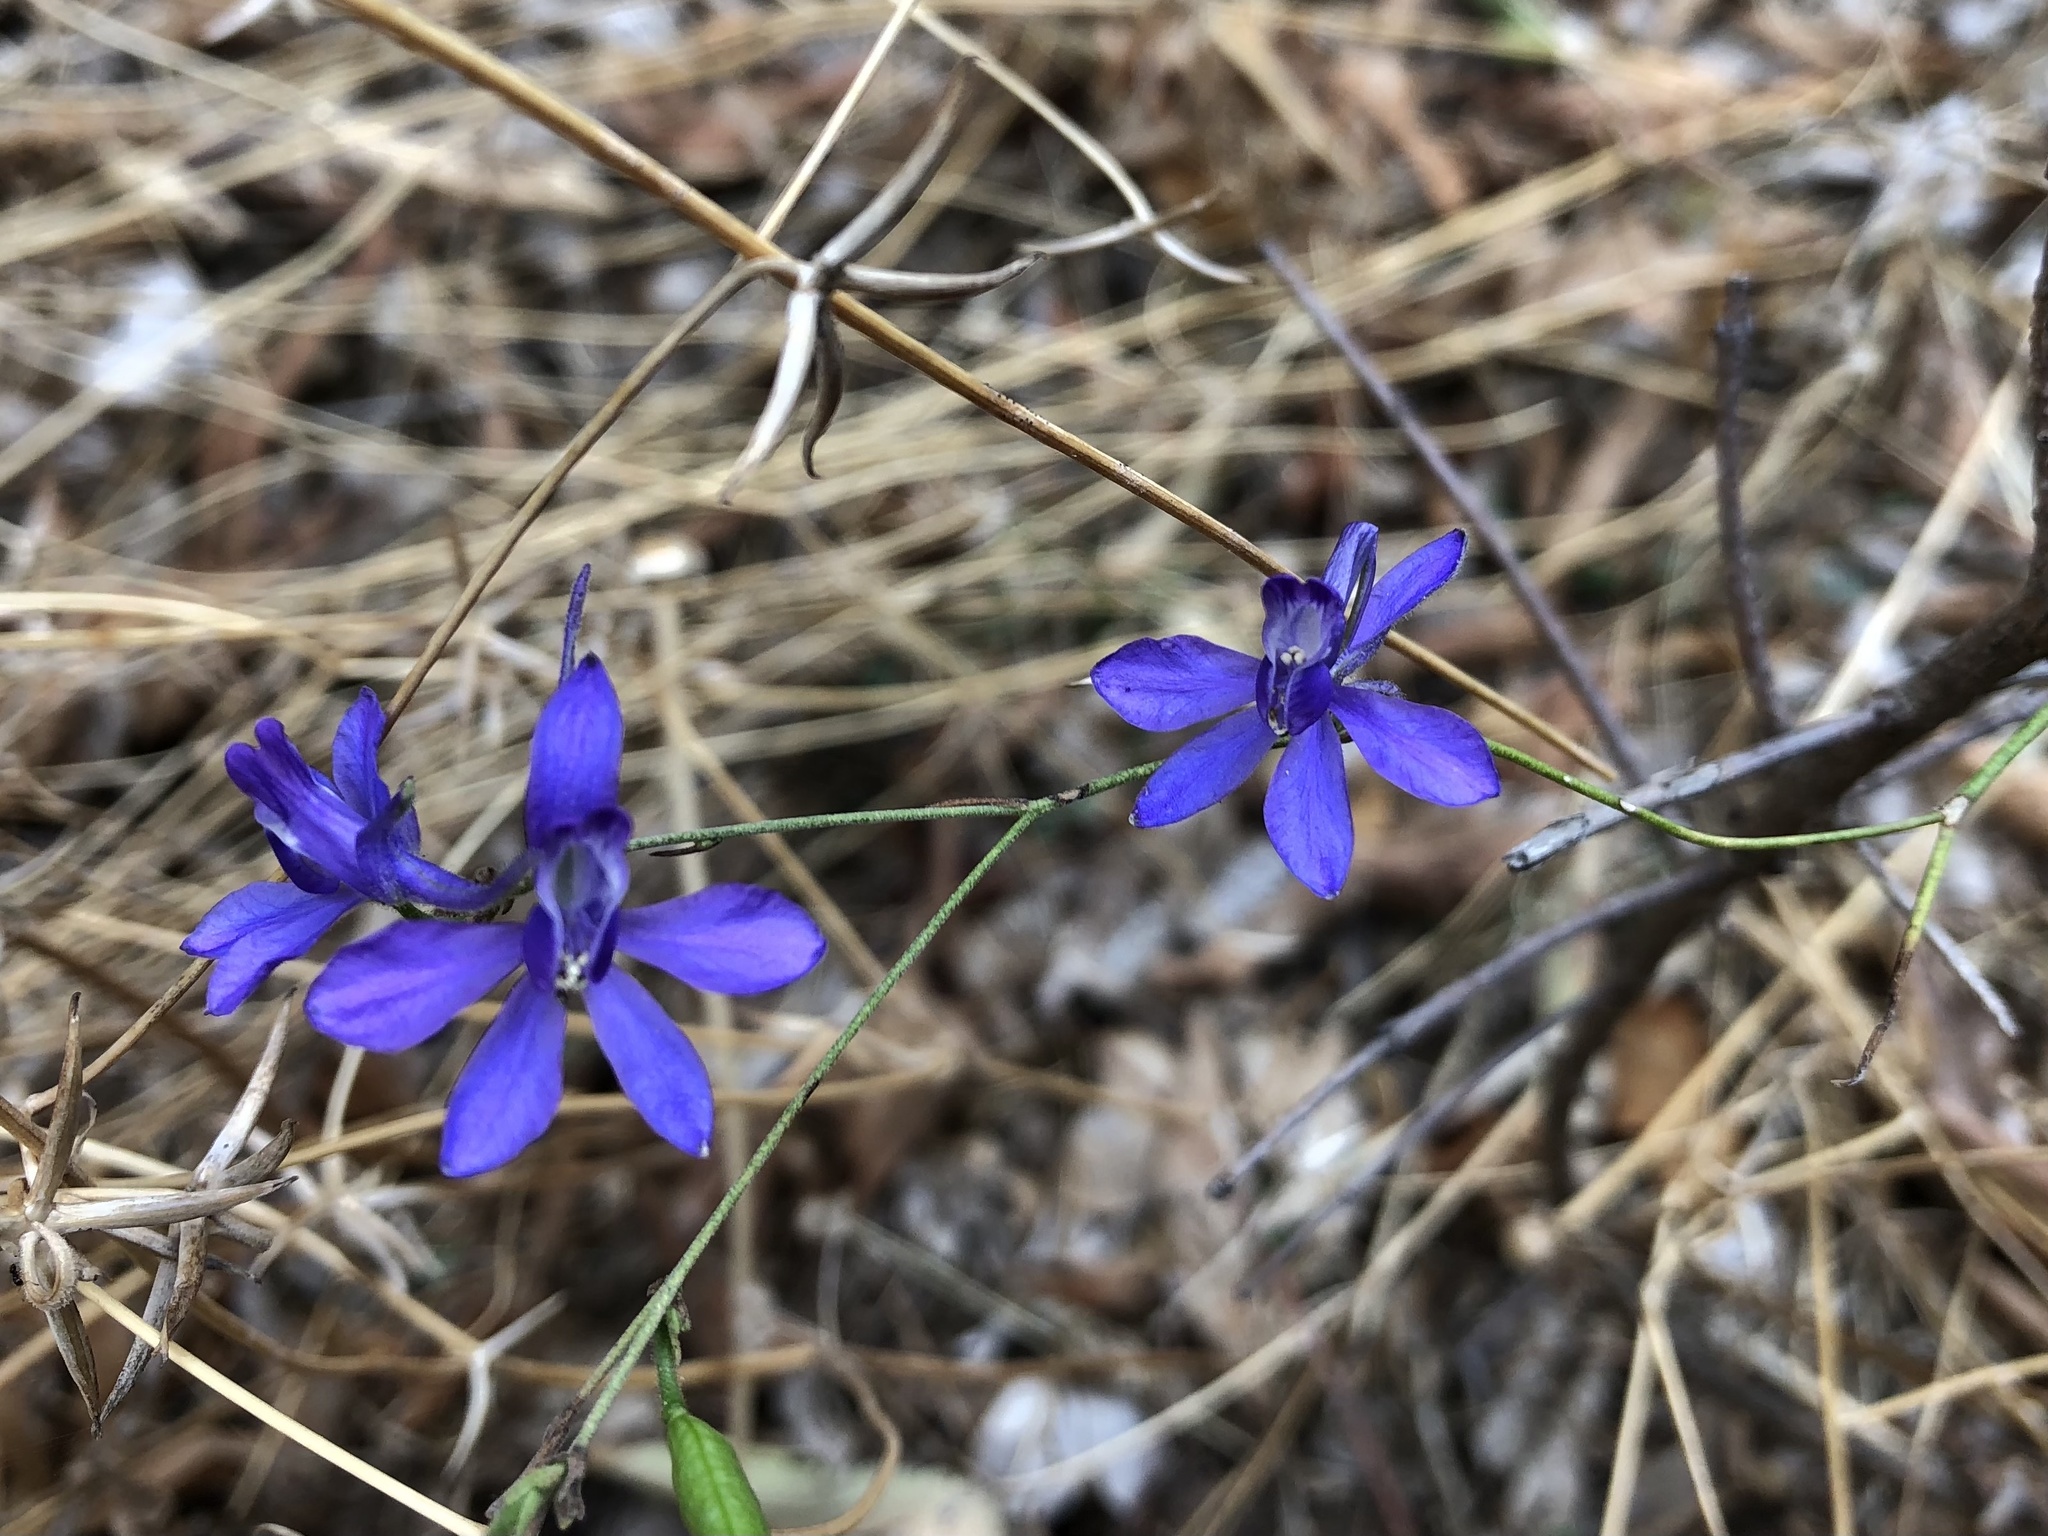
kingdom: Plantae
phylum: Tracheophyta
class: Magnoliopsida
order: Ranunculales
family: Ranunculaceae
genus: Delphinium
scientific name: Delphinium consolida
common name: Branching larkspur
